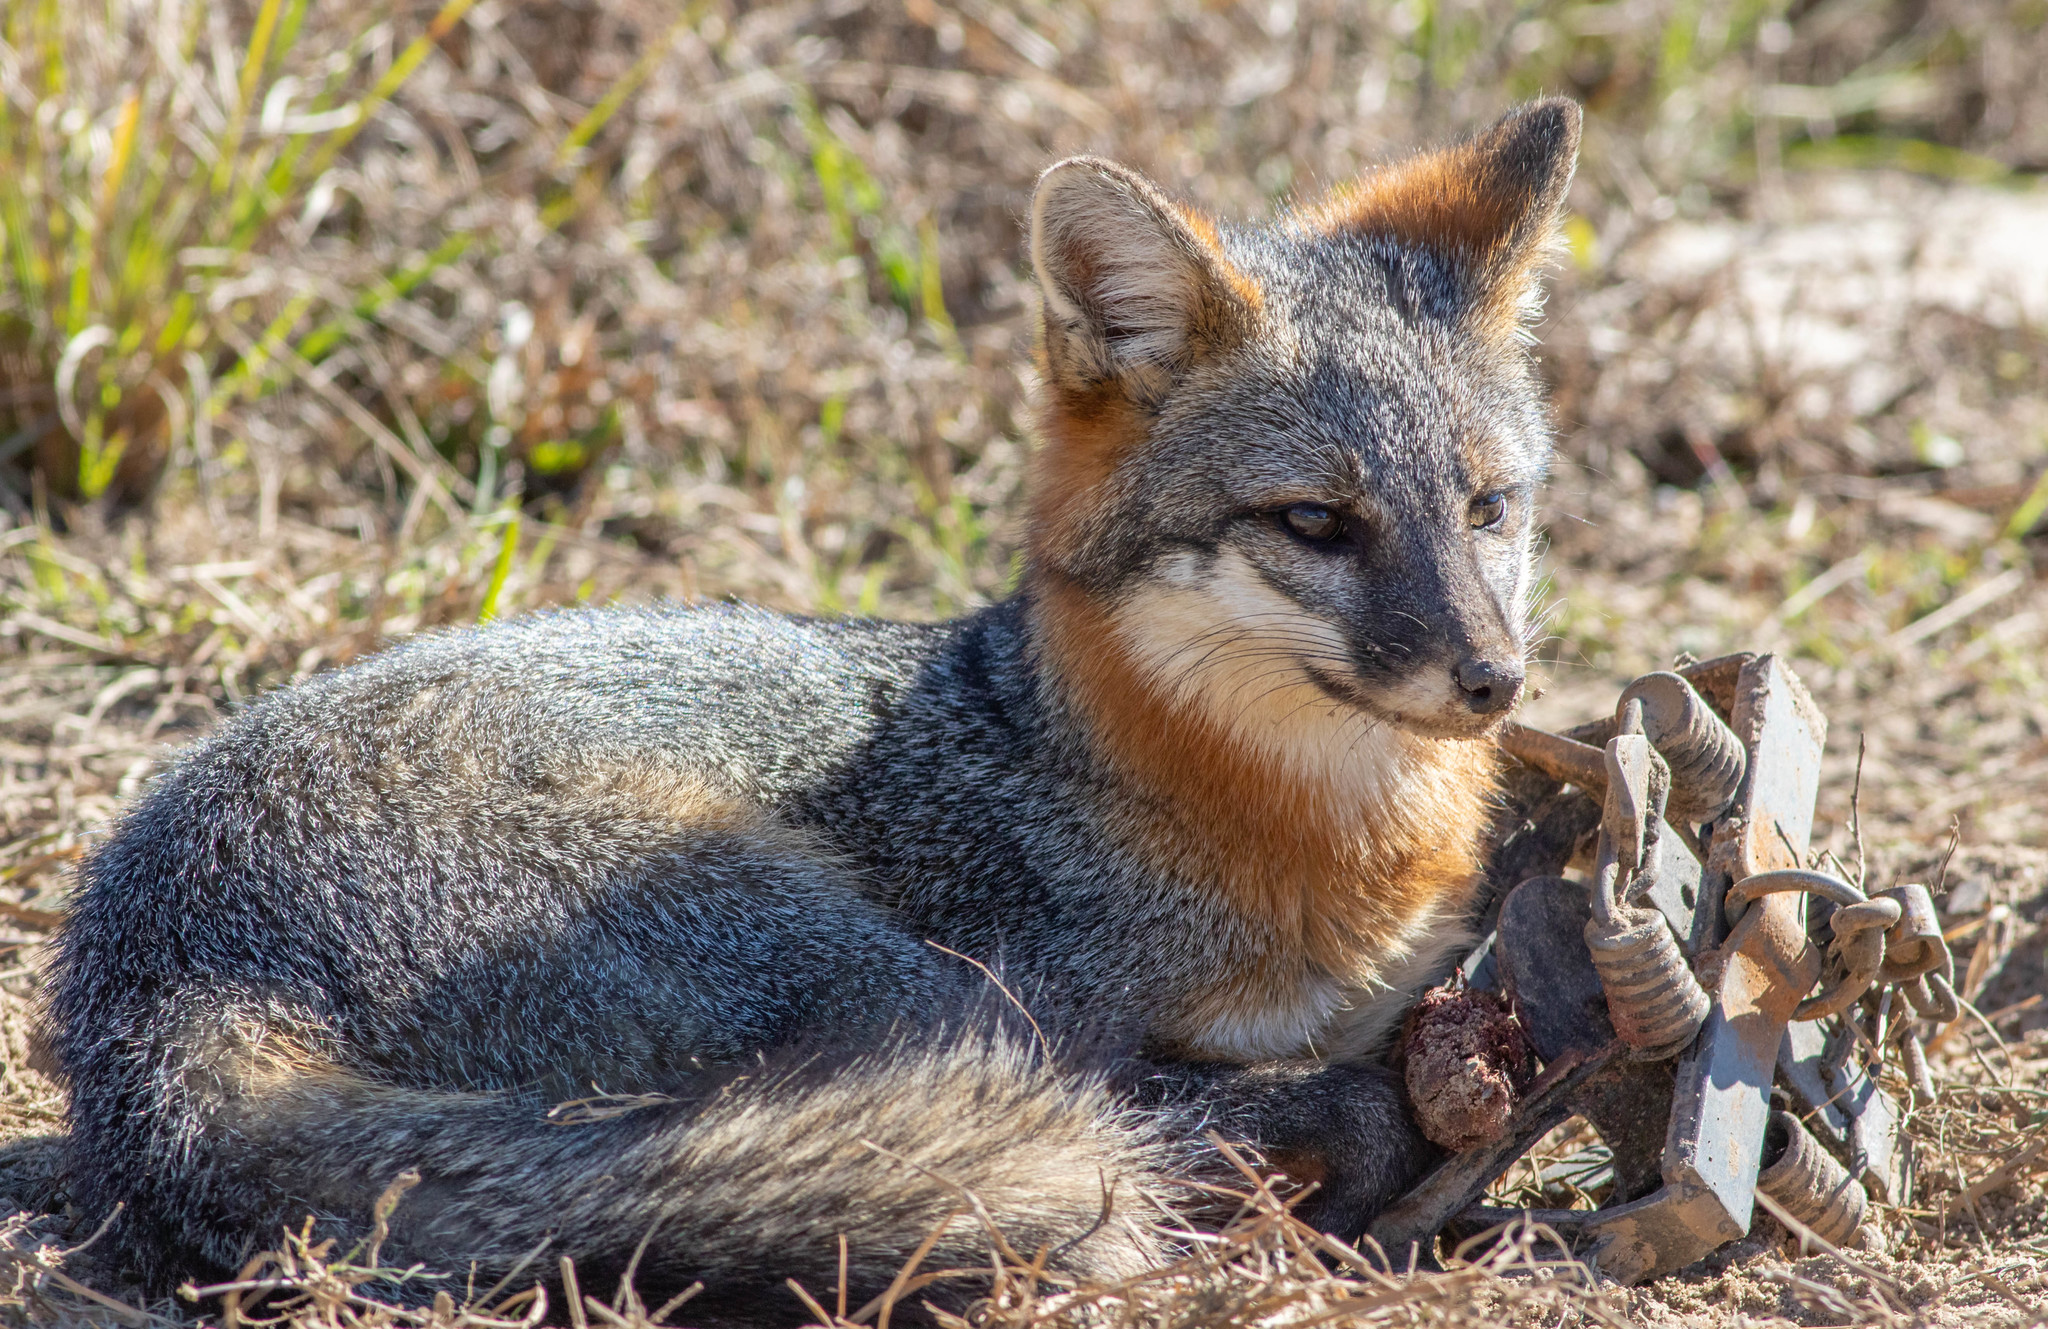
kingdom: Animalia
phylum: Chordata
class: Mammalia
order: Carnivora
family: Canidae
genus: Urocyon
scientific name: Urocyon cinereoargenteus
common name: Gray fox
